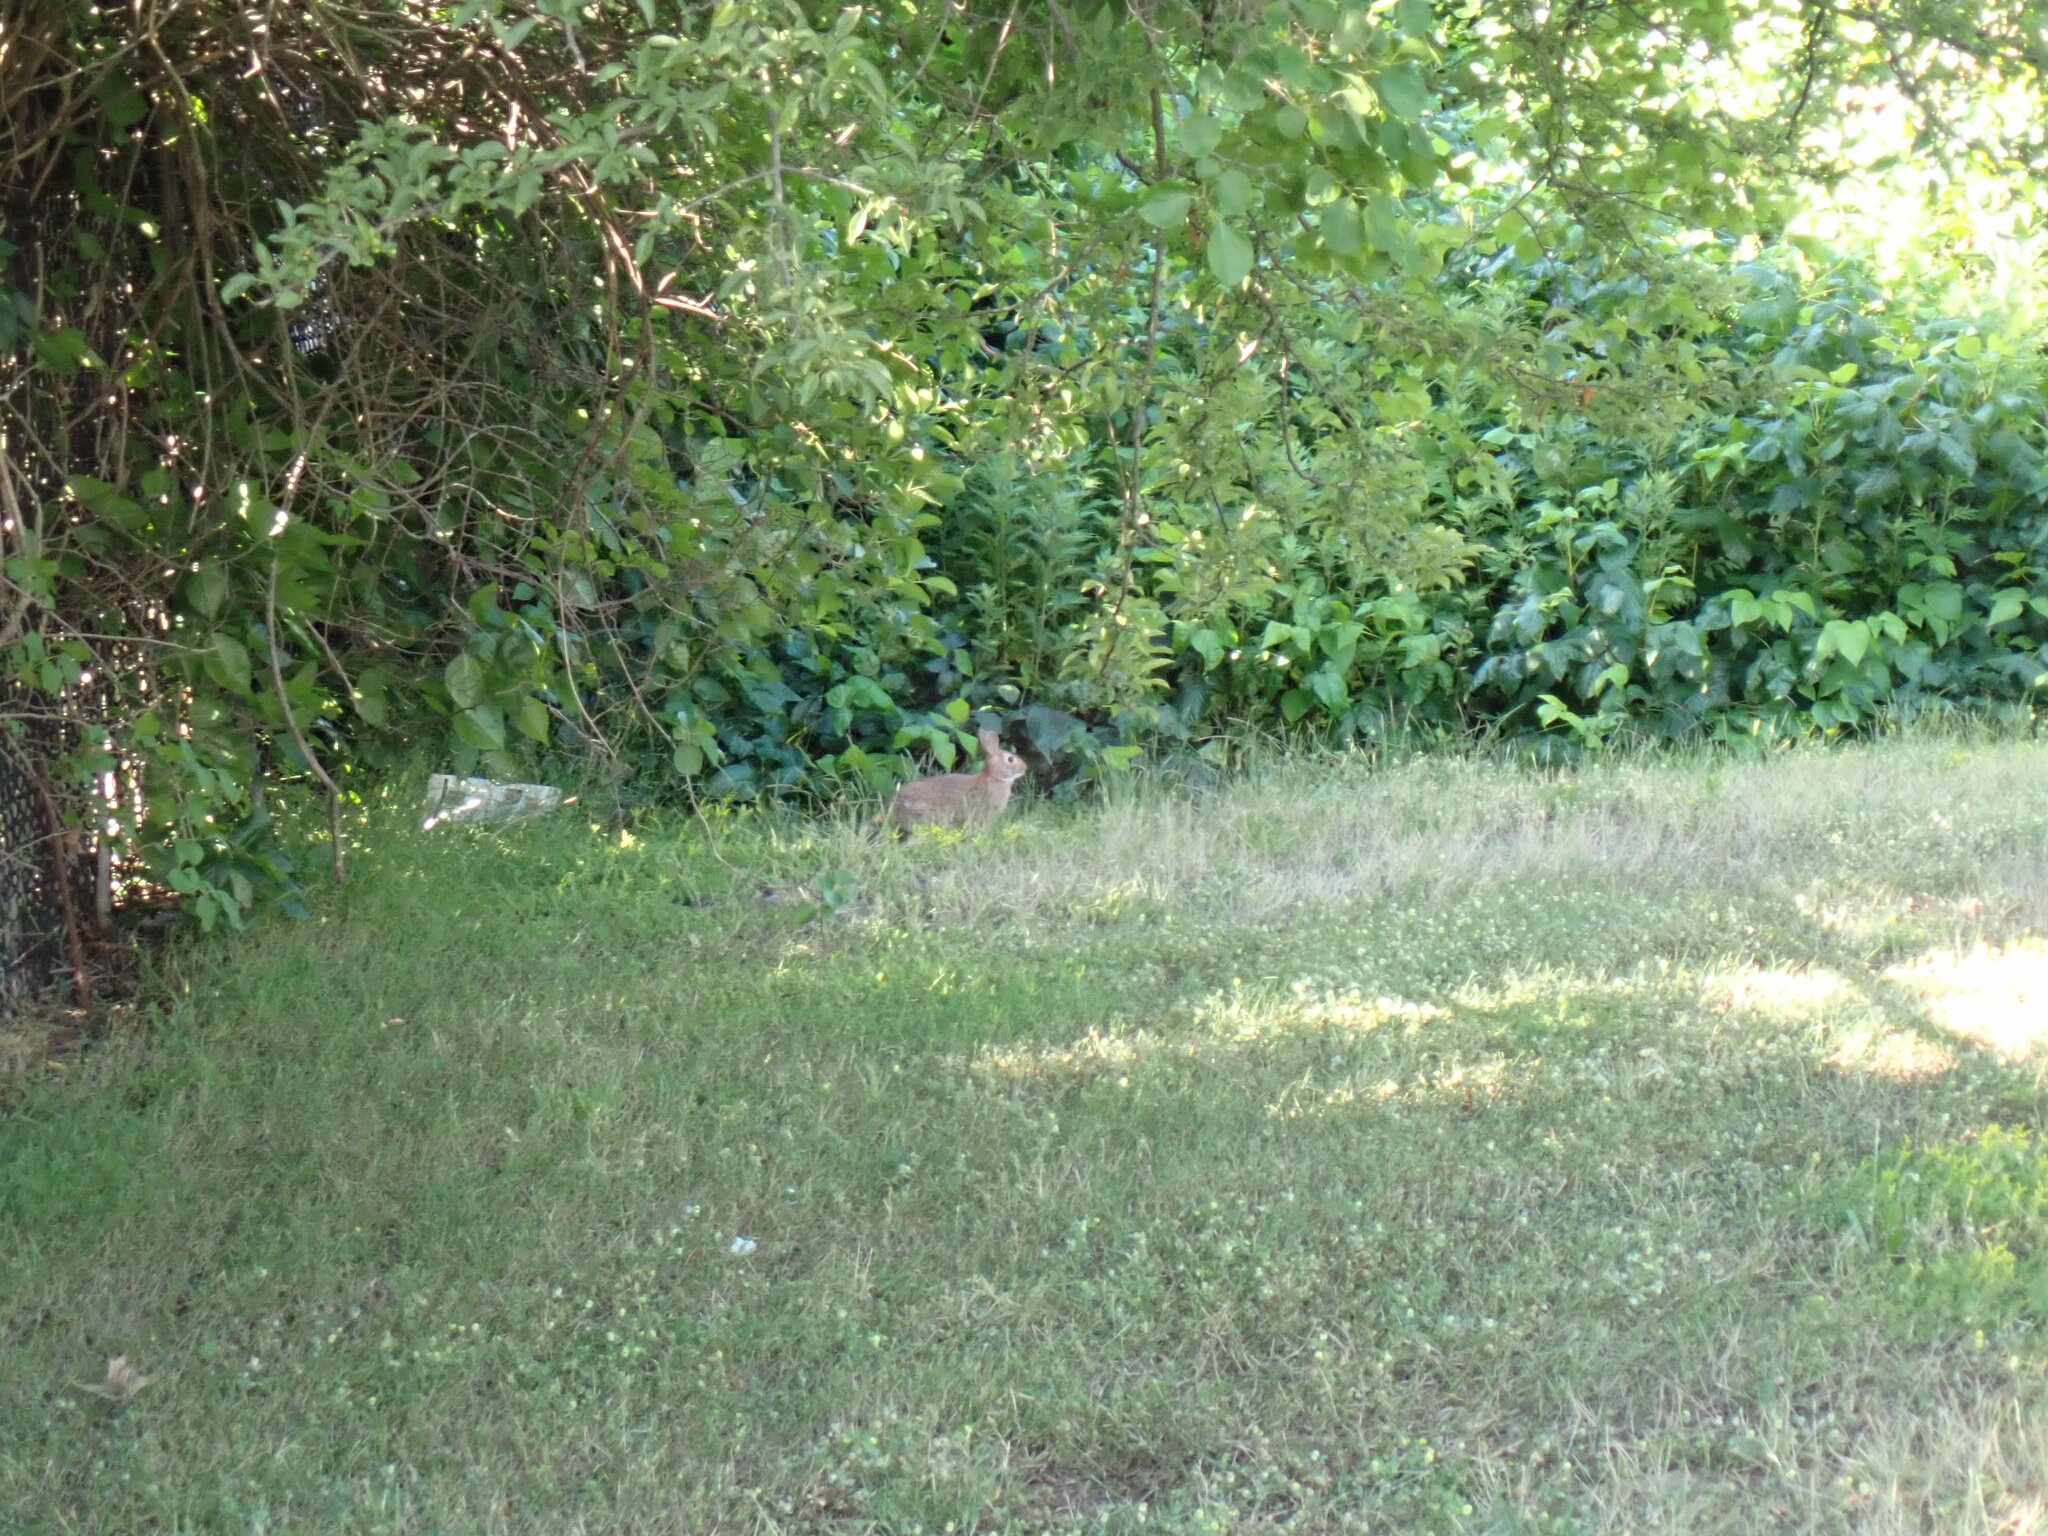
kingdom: Animalia
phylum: Chordata
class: Mammalia
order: Lagomorpha
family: Leporidae
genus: Sylvilagus
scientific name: Sylvilagus floridanus
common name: Eastern cottontail
